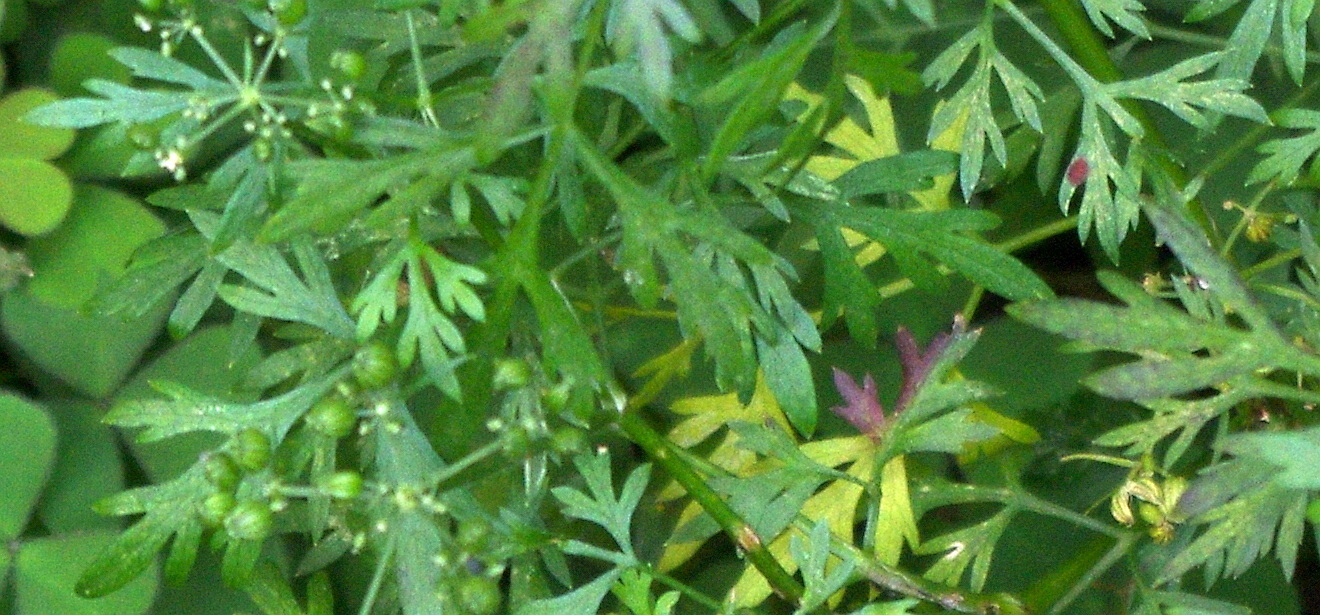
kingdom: Plantae
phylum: Tracheophyta
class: Magnoliopsida
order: Apiales
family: Apiaceae
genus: Aethusa
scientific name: Aethusa cynapium
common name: Fool's parsley
